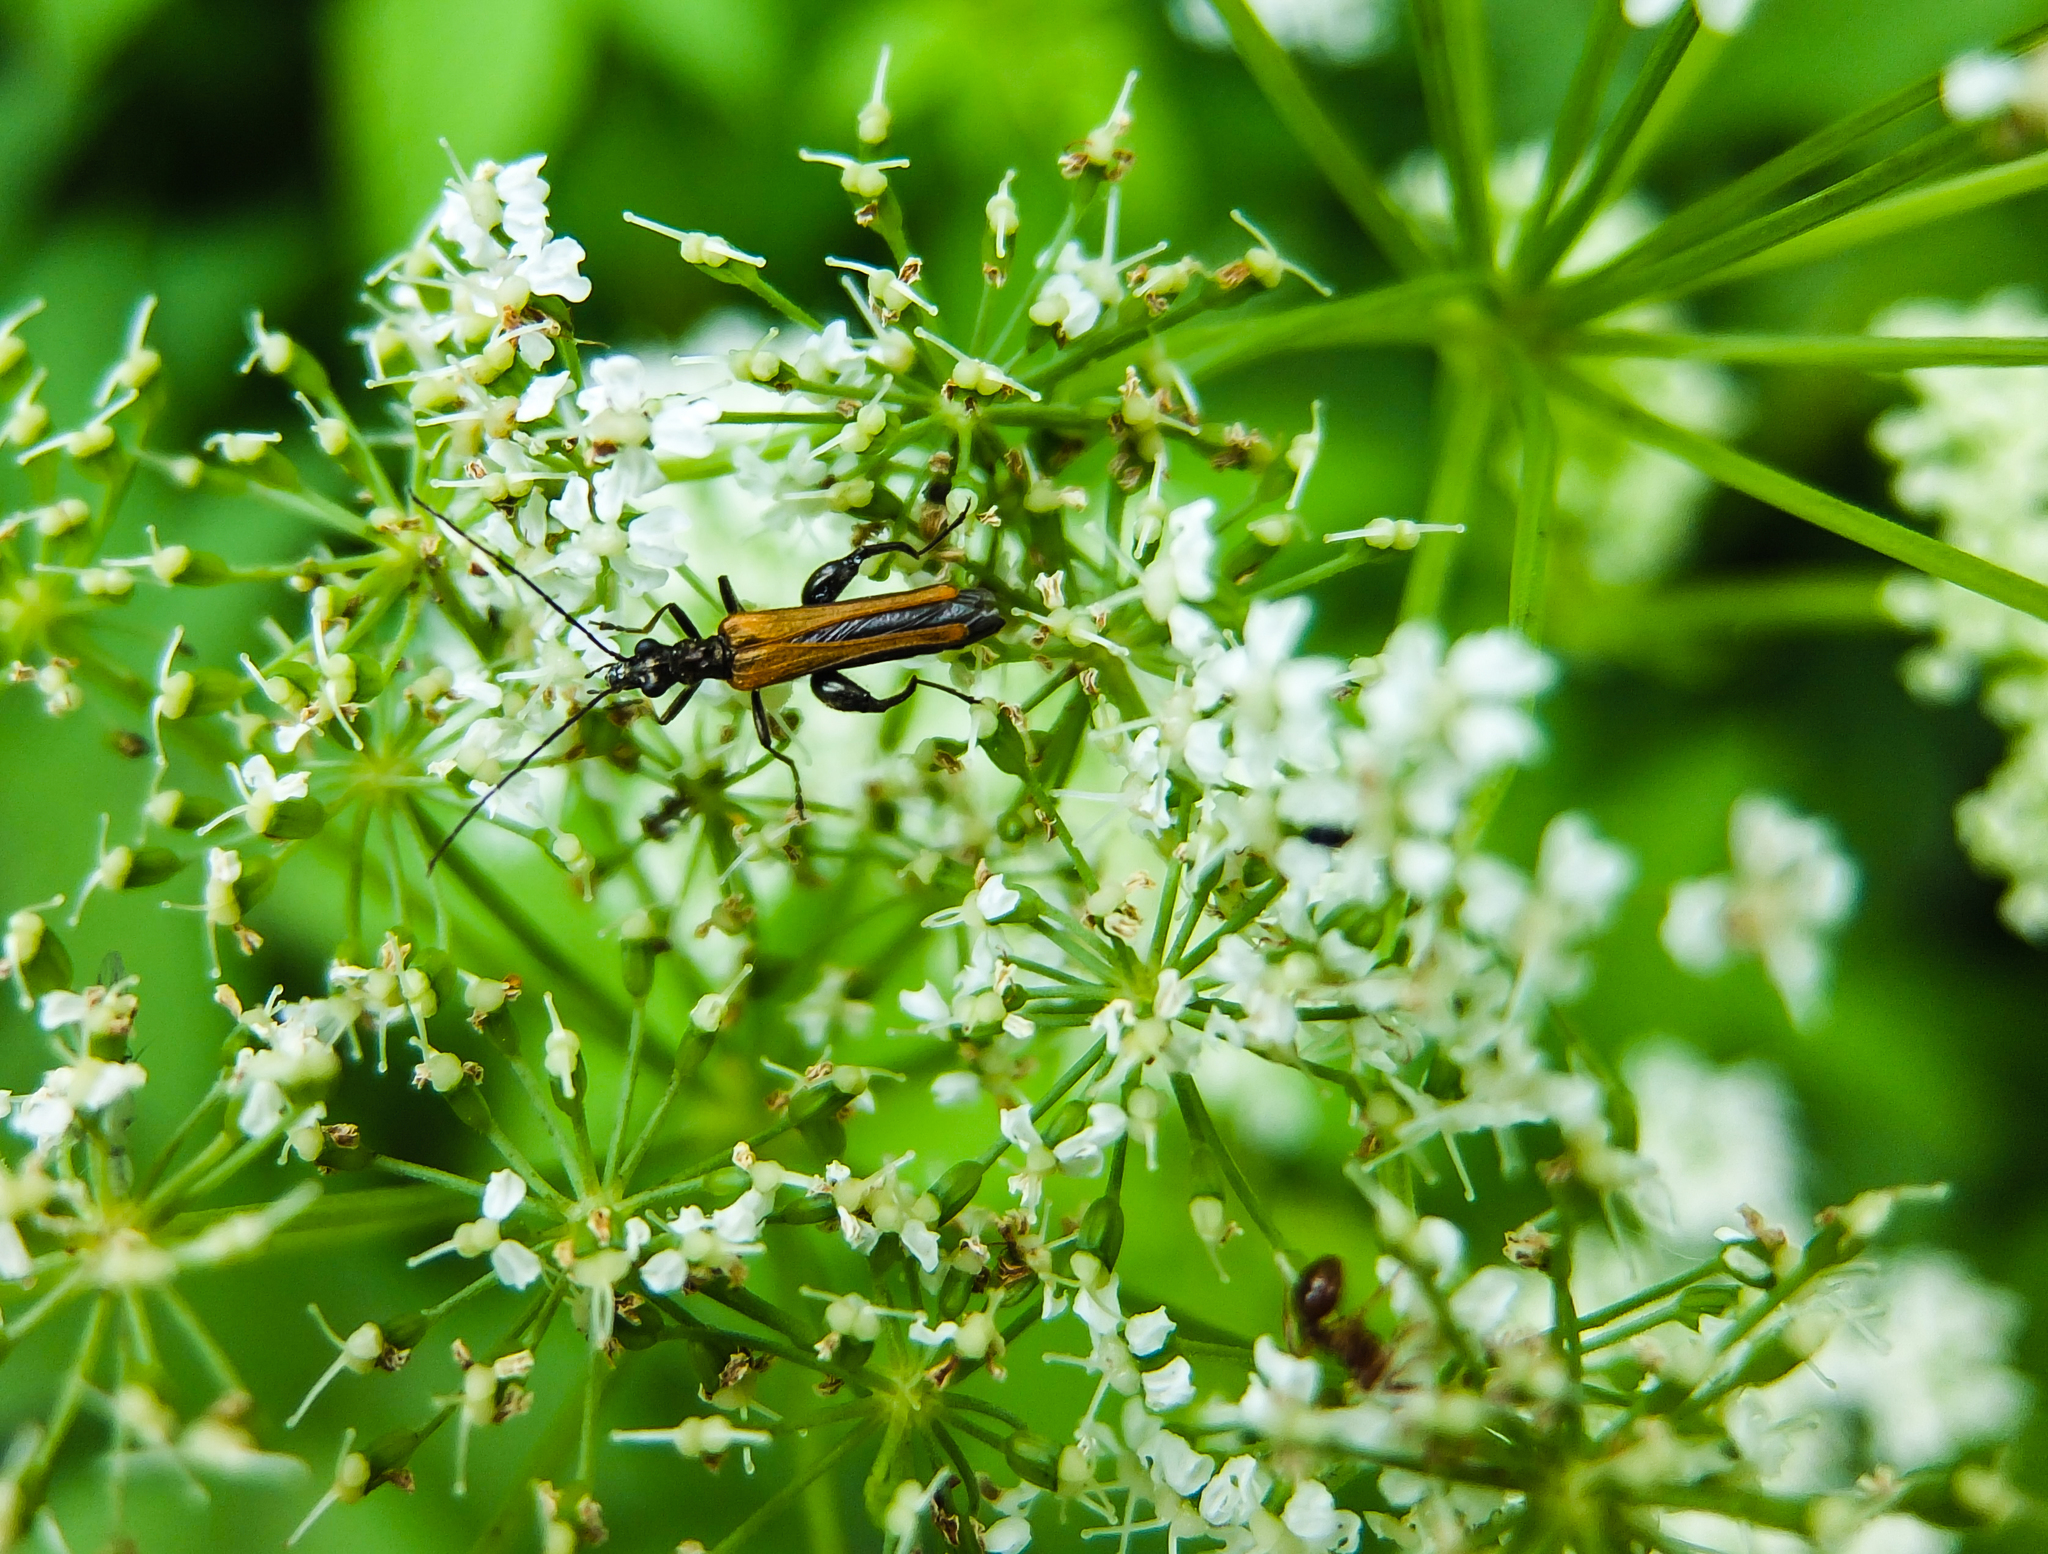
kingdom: Animalia
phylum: Arthropoda
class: Insecta
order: Coleoptera
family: Oedemeridae
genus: Oedemera
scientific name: Oedemera femorata
